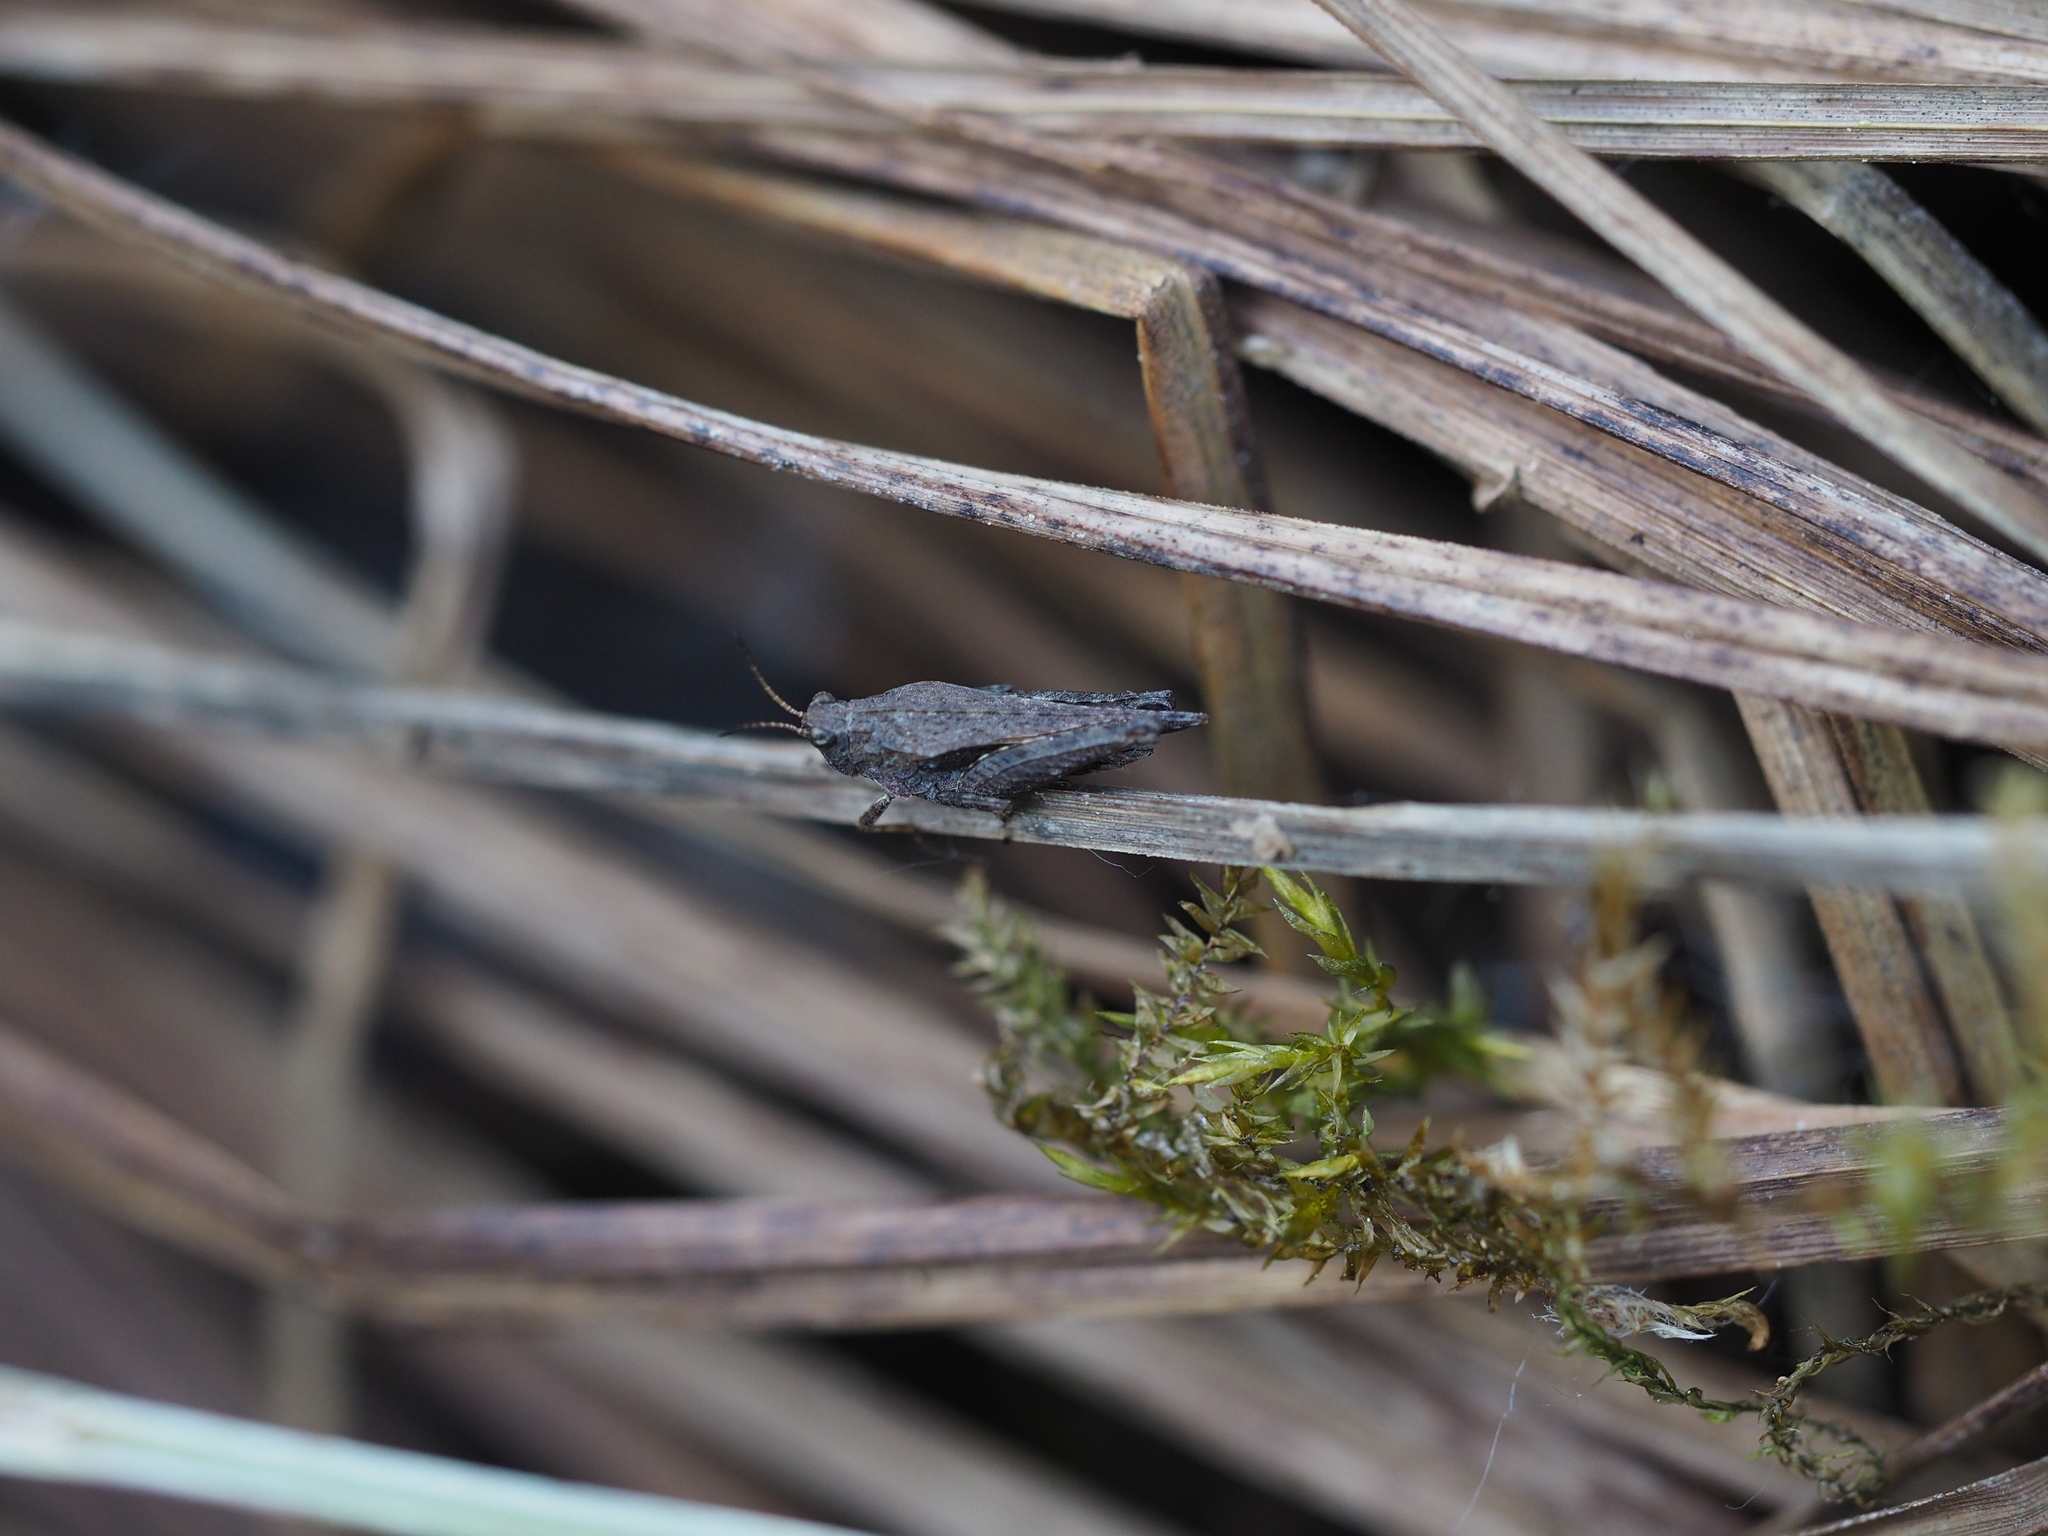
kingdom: Animalia
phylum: Arthropoda
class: Insecta
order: Orthoptera
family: Tetrigidae
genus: Tetrix
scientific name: Tetrix subulata
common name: Slender ground-hopper
